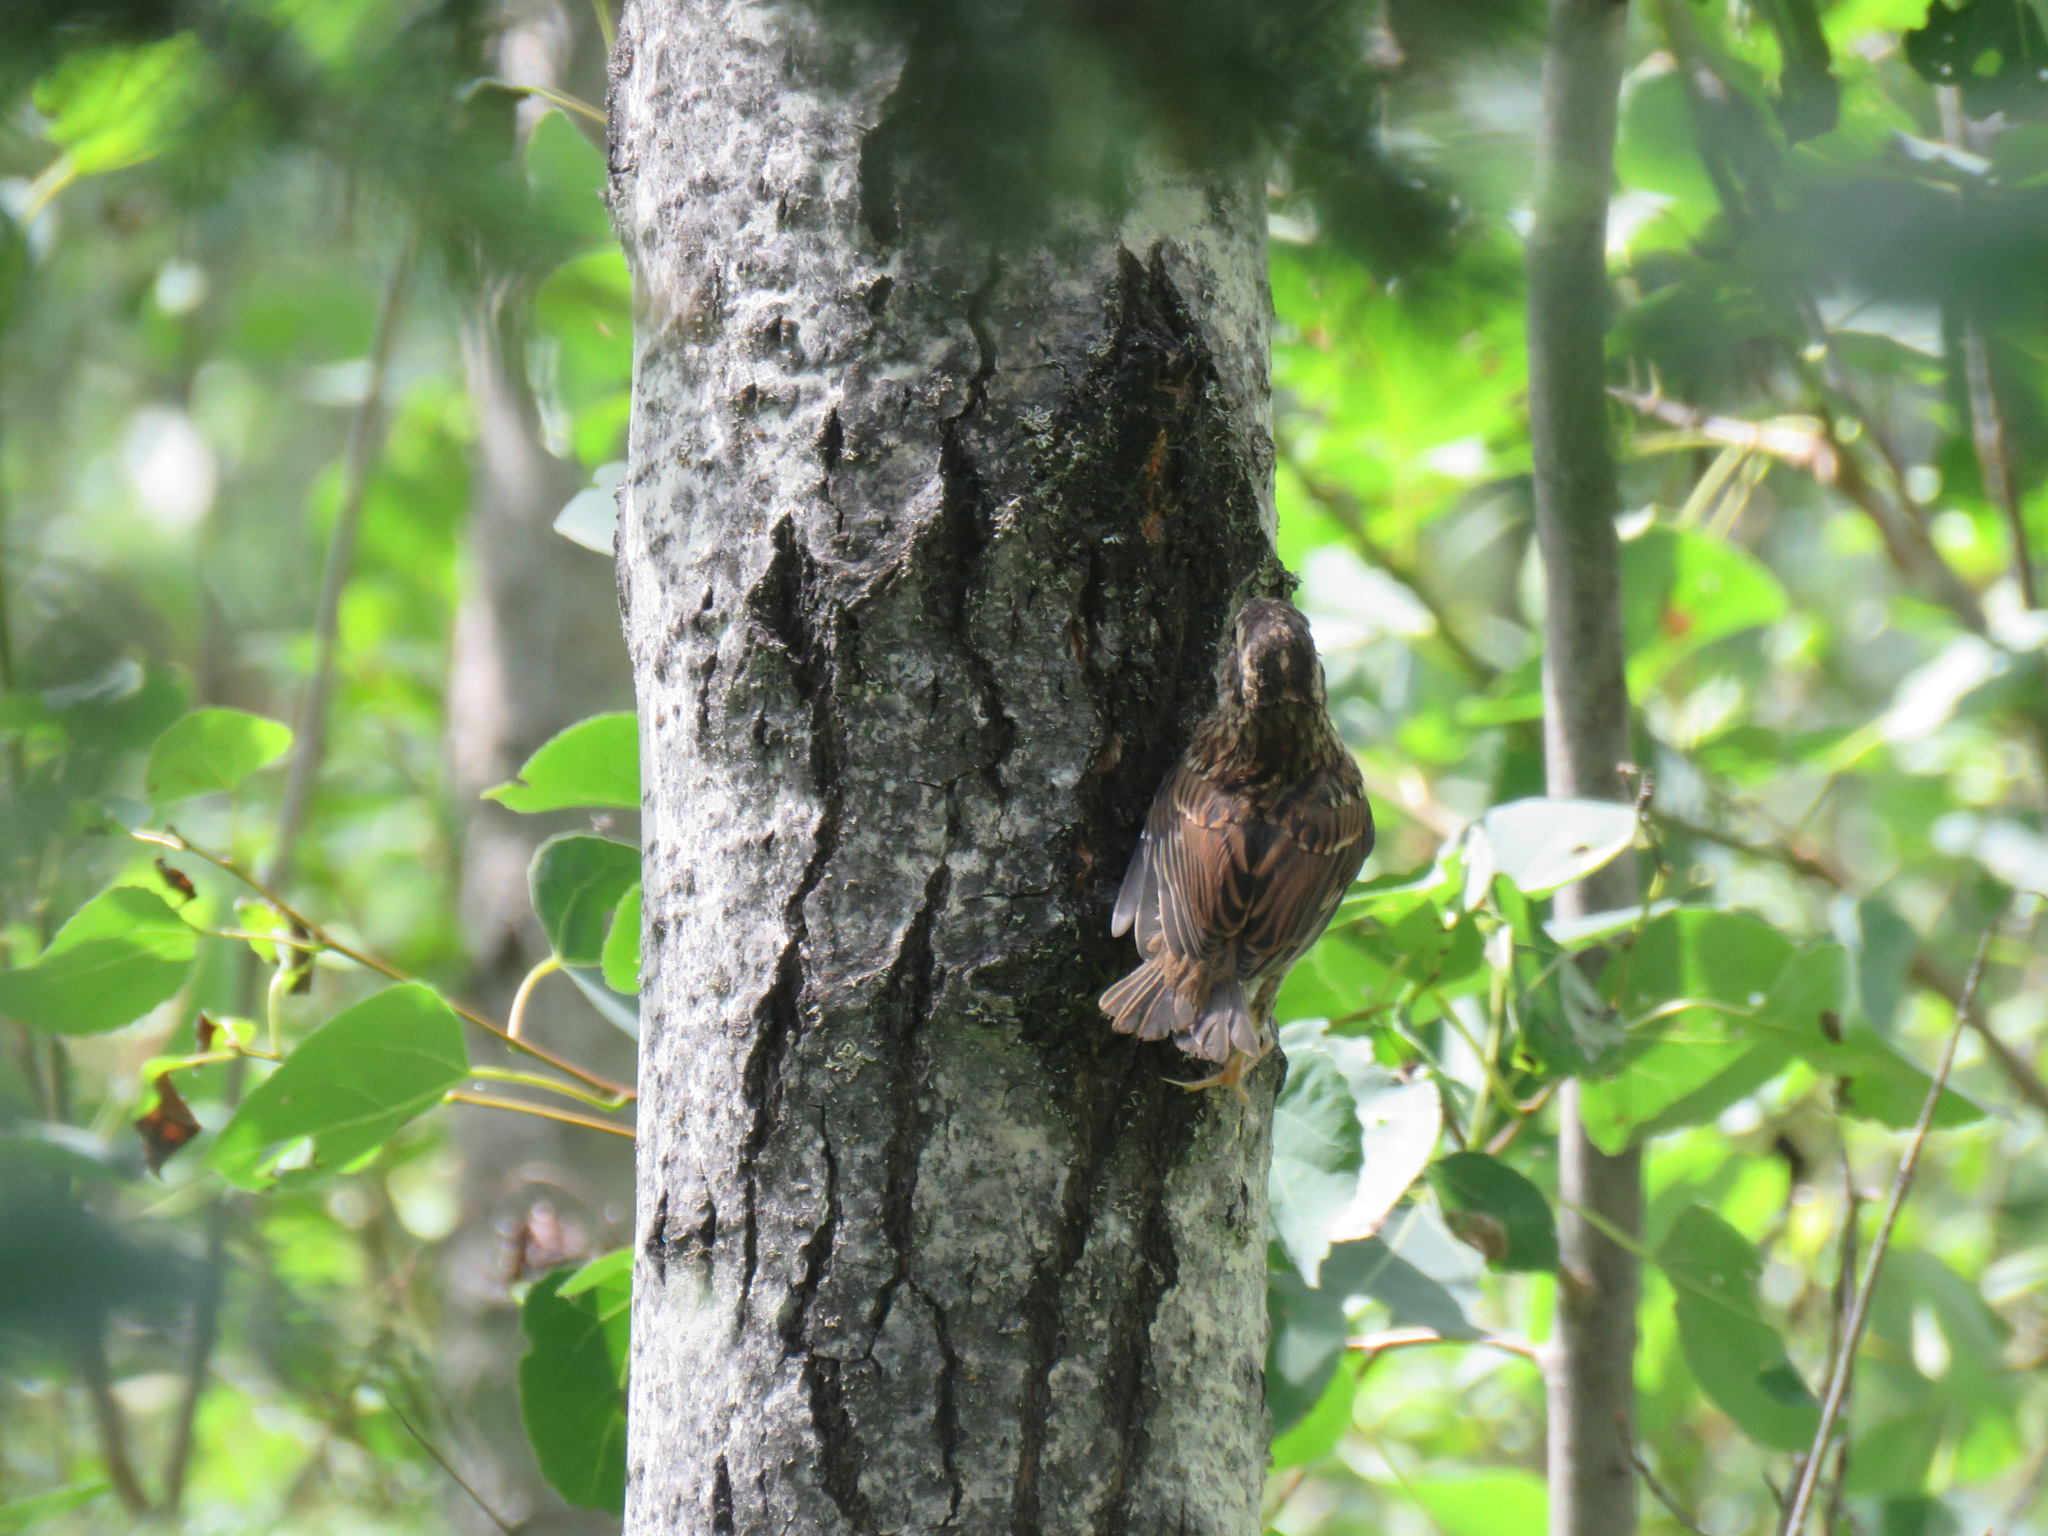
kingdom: Animalia
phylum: Chordata
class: Aves
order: Passeriformes
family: Passerellidae
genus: Zonotrichia
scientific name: Zonotrichia albicollis
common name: White-throated sparrow
